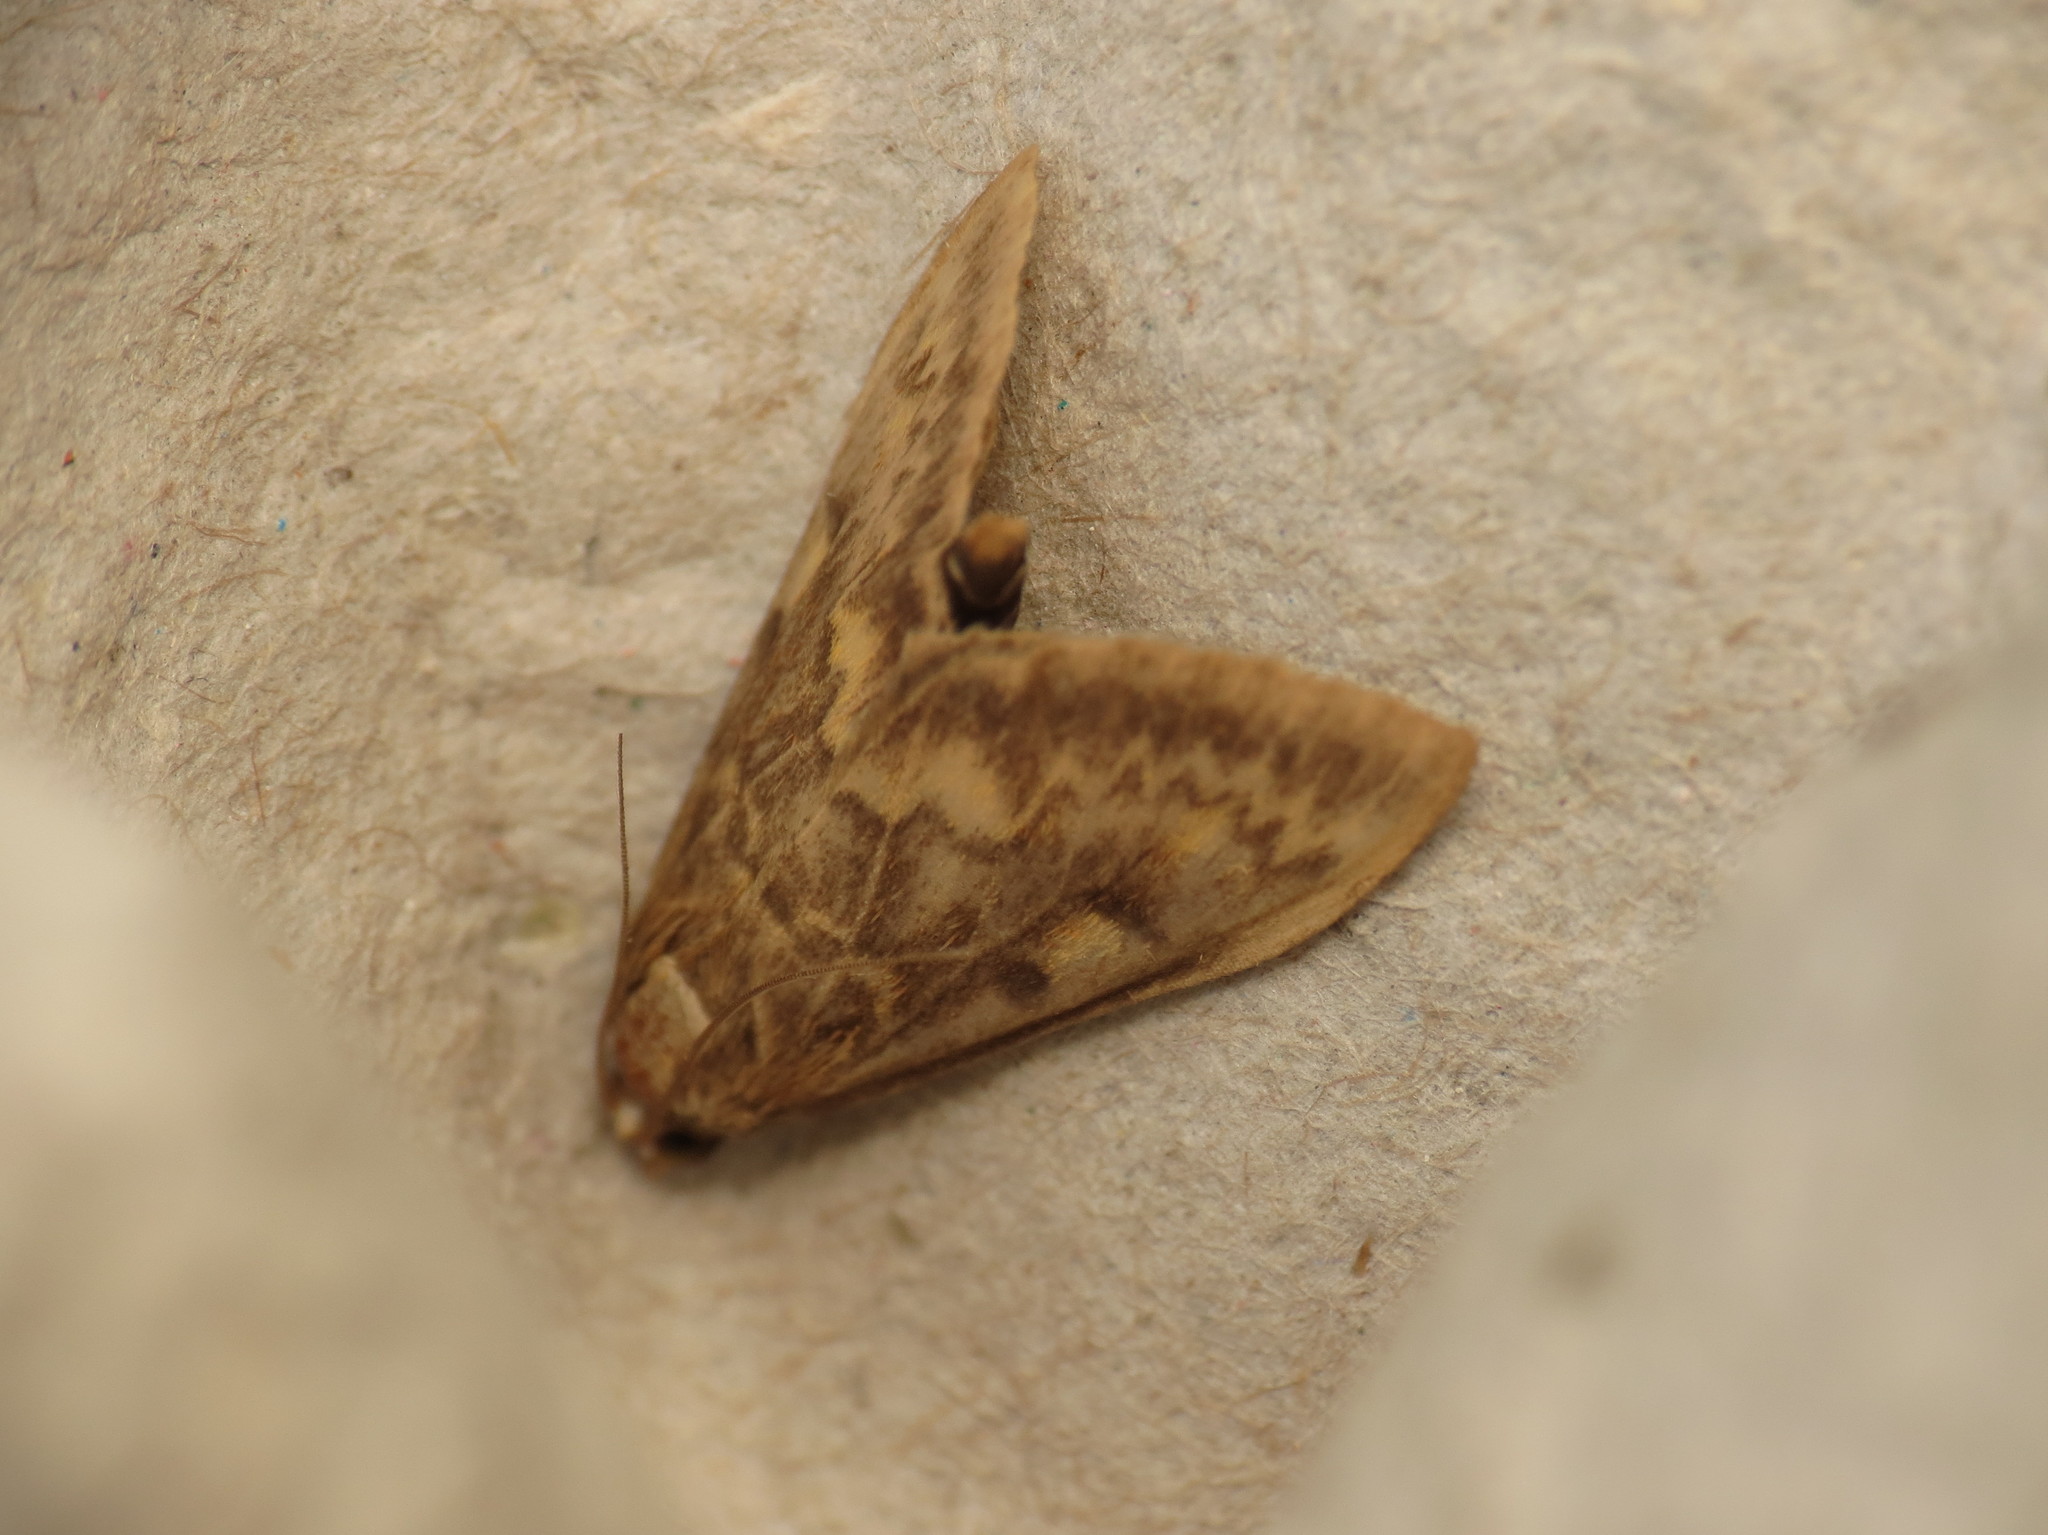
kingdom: Animalia
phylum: Arthropoda
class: Insecta
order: Lepidoptera
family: Crambidae
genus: Ostrinia
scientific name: Ostrinia nubilalis
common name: European corn borer
